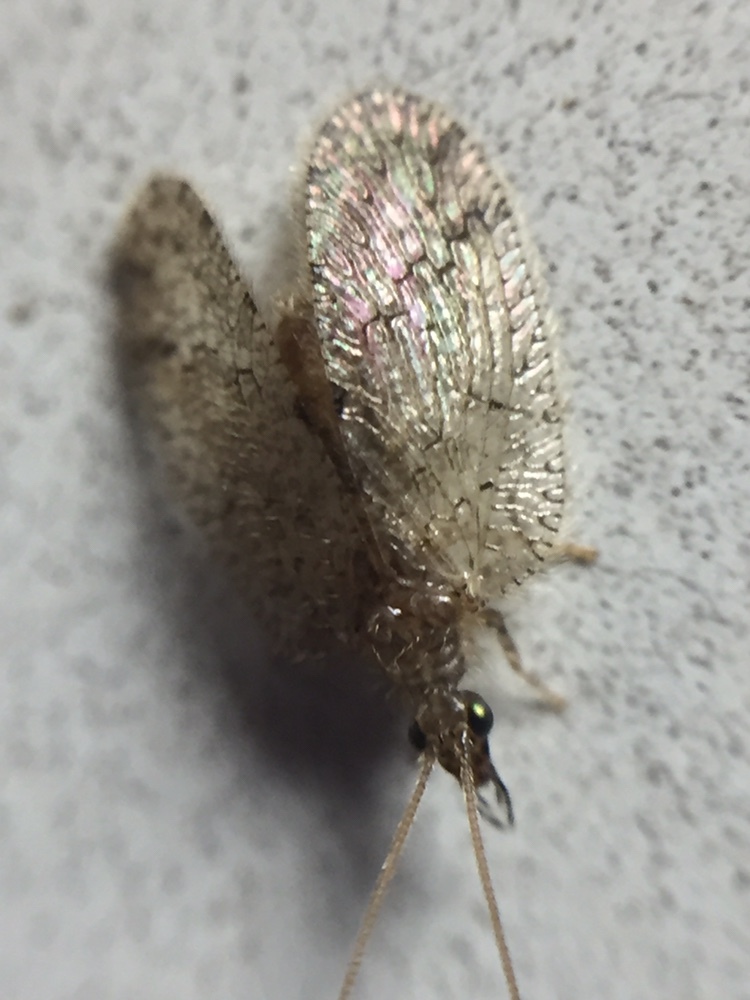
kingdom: Animalia
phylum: Arthropoda
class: Insecta
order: Neuroptera
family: Hemerobiidae
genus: Psectra
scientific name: Psectra nakaharai
